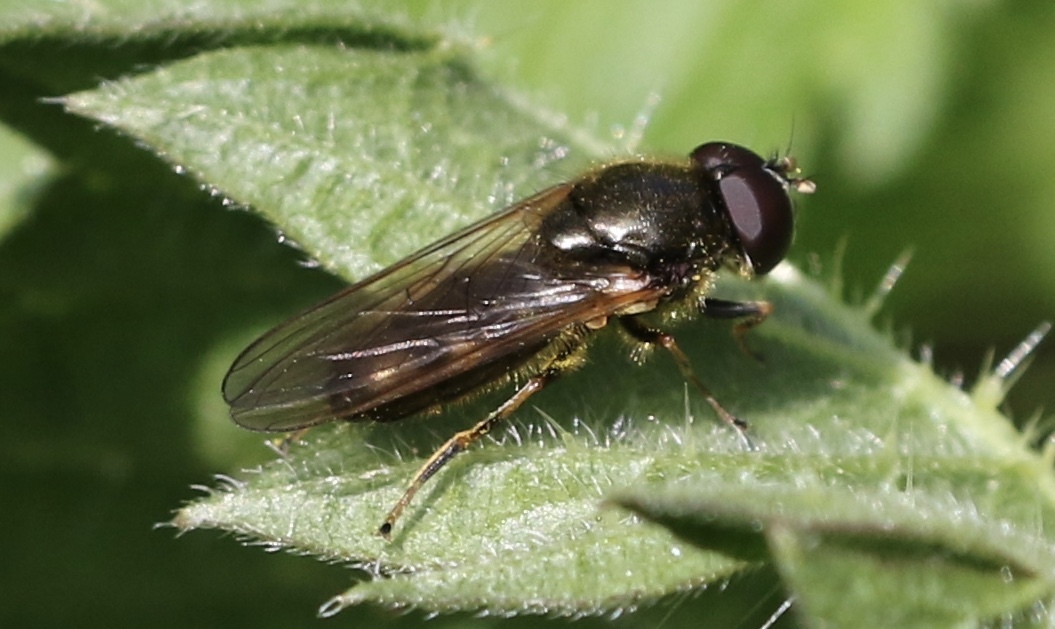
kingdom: Animalia
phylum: Arthropoda
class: Insecta
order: Diptera
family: Syrphidae
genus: Cheilosia
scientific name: Cheilosia pagana
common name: Hover fly
